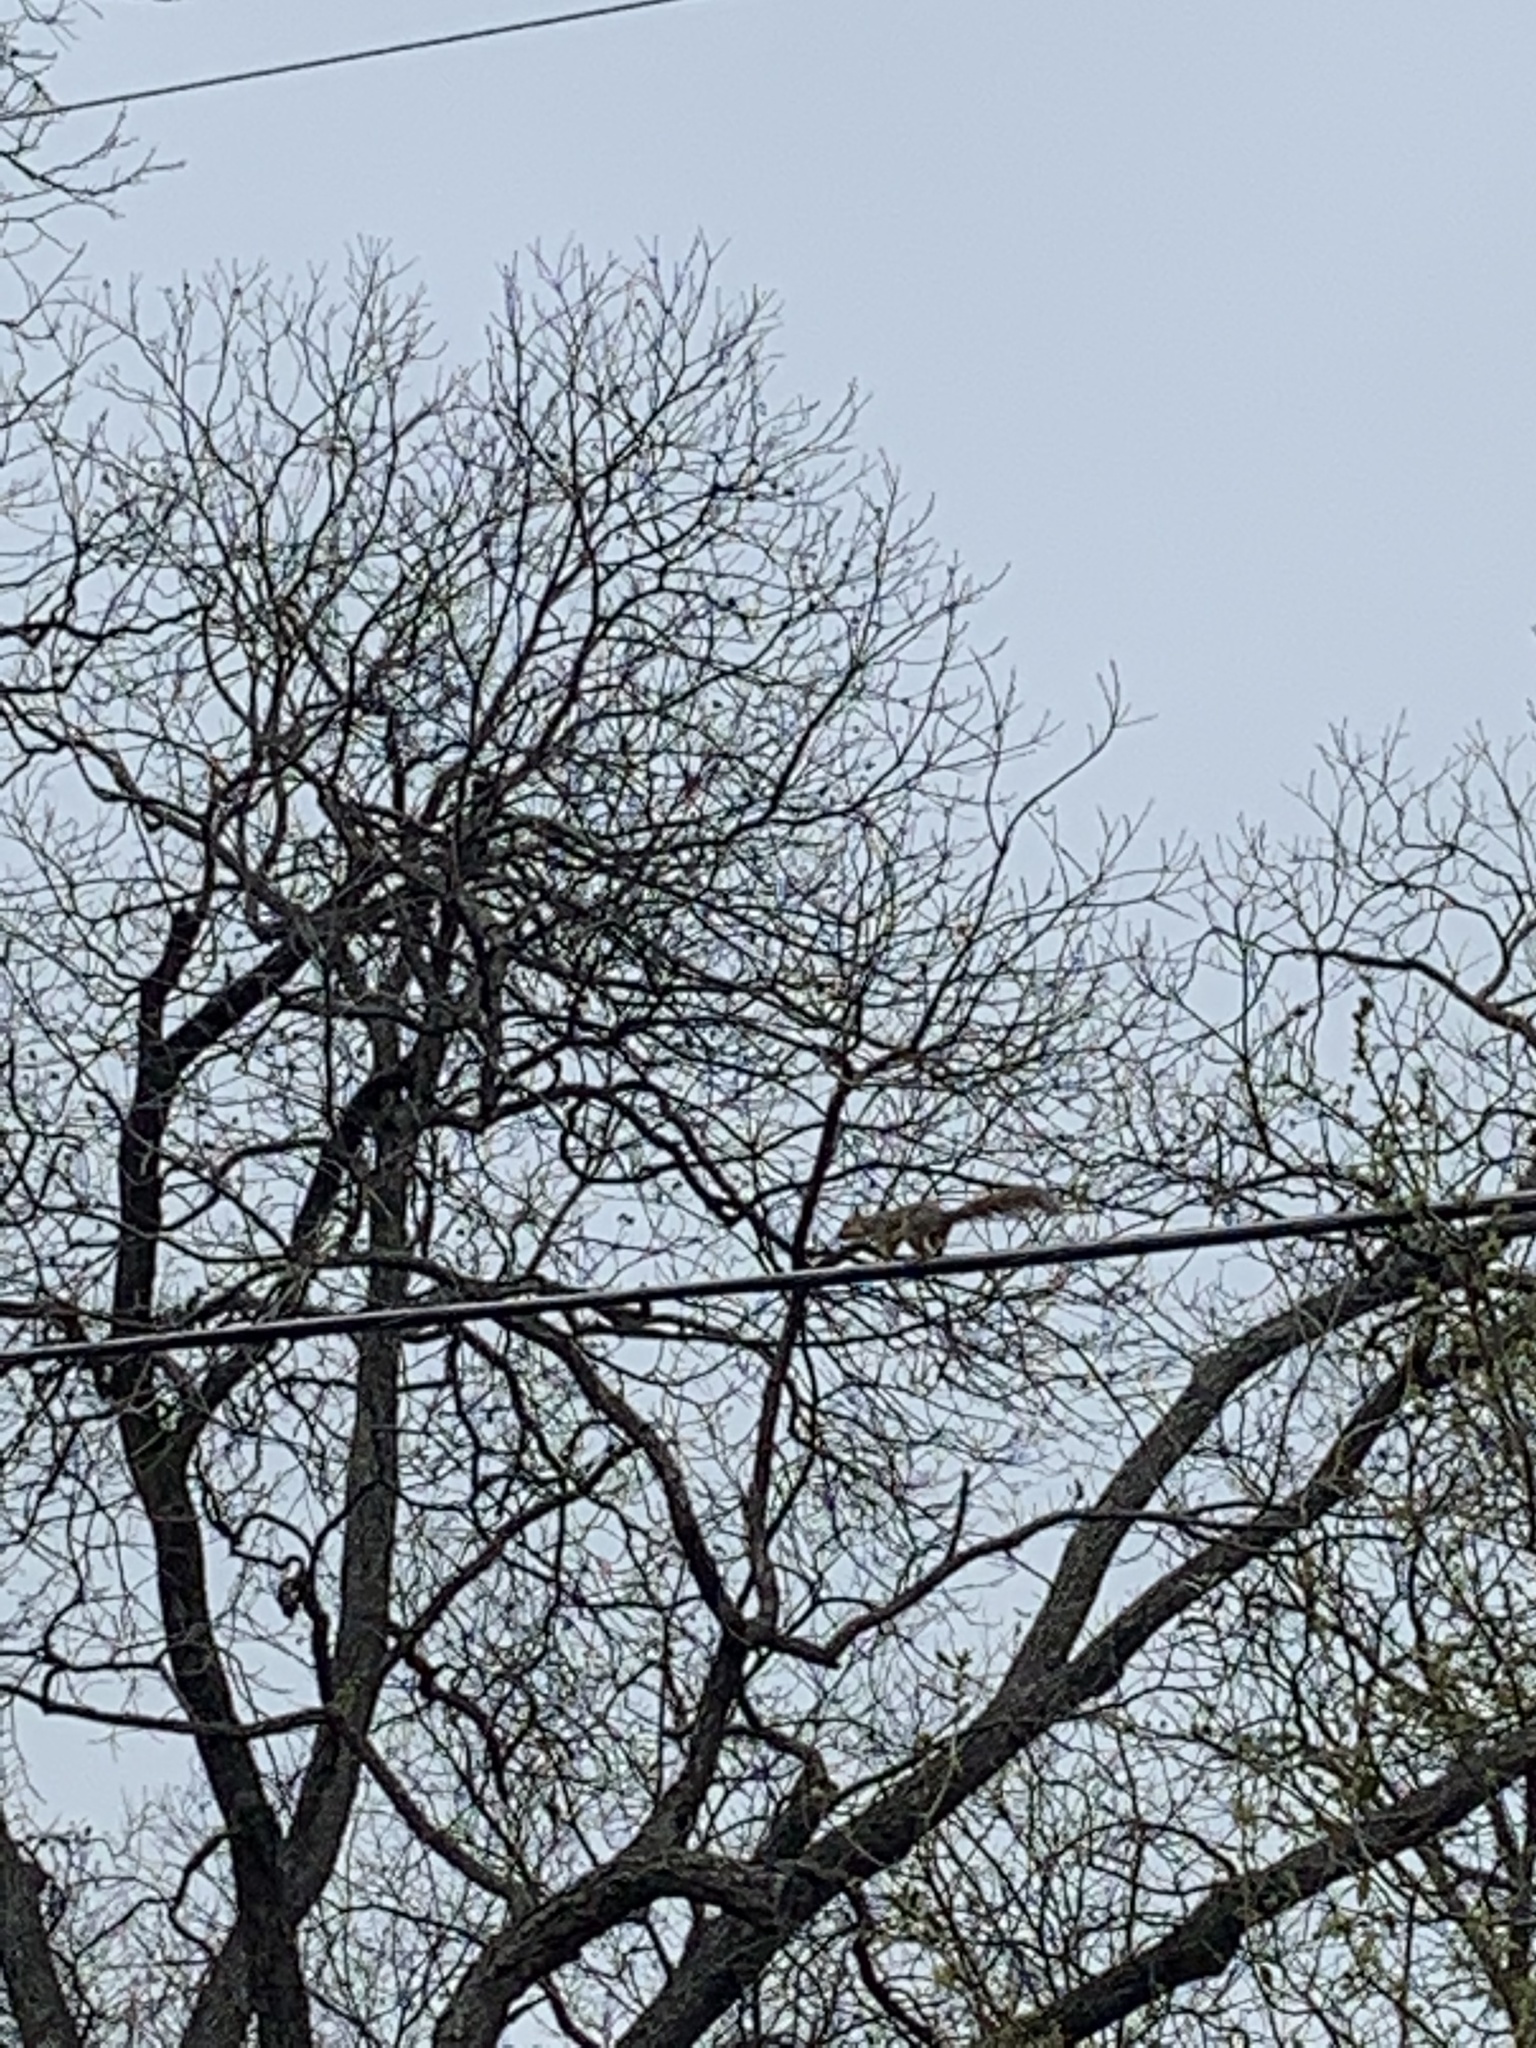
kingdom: Animalia
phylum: Chordata
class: Mammalia
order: Rodentia
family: Sciuridae
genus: Sciurus
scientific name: Sciurus niger
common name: Fox squirrel
